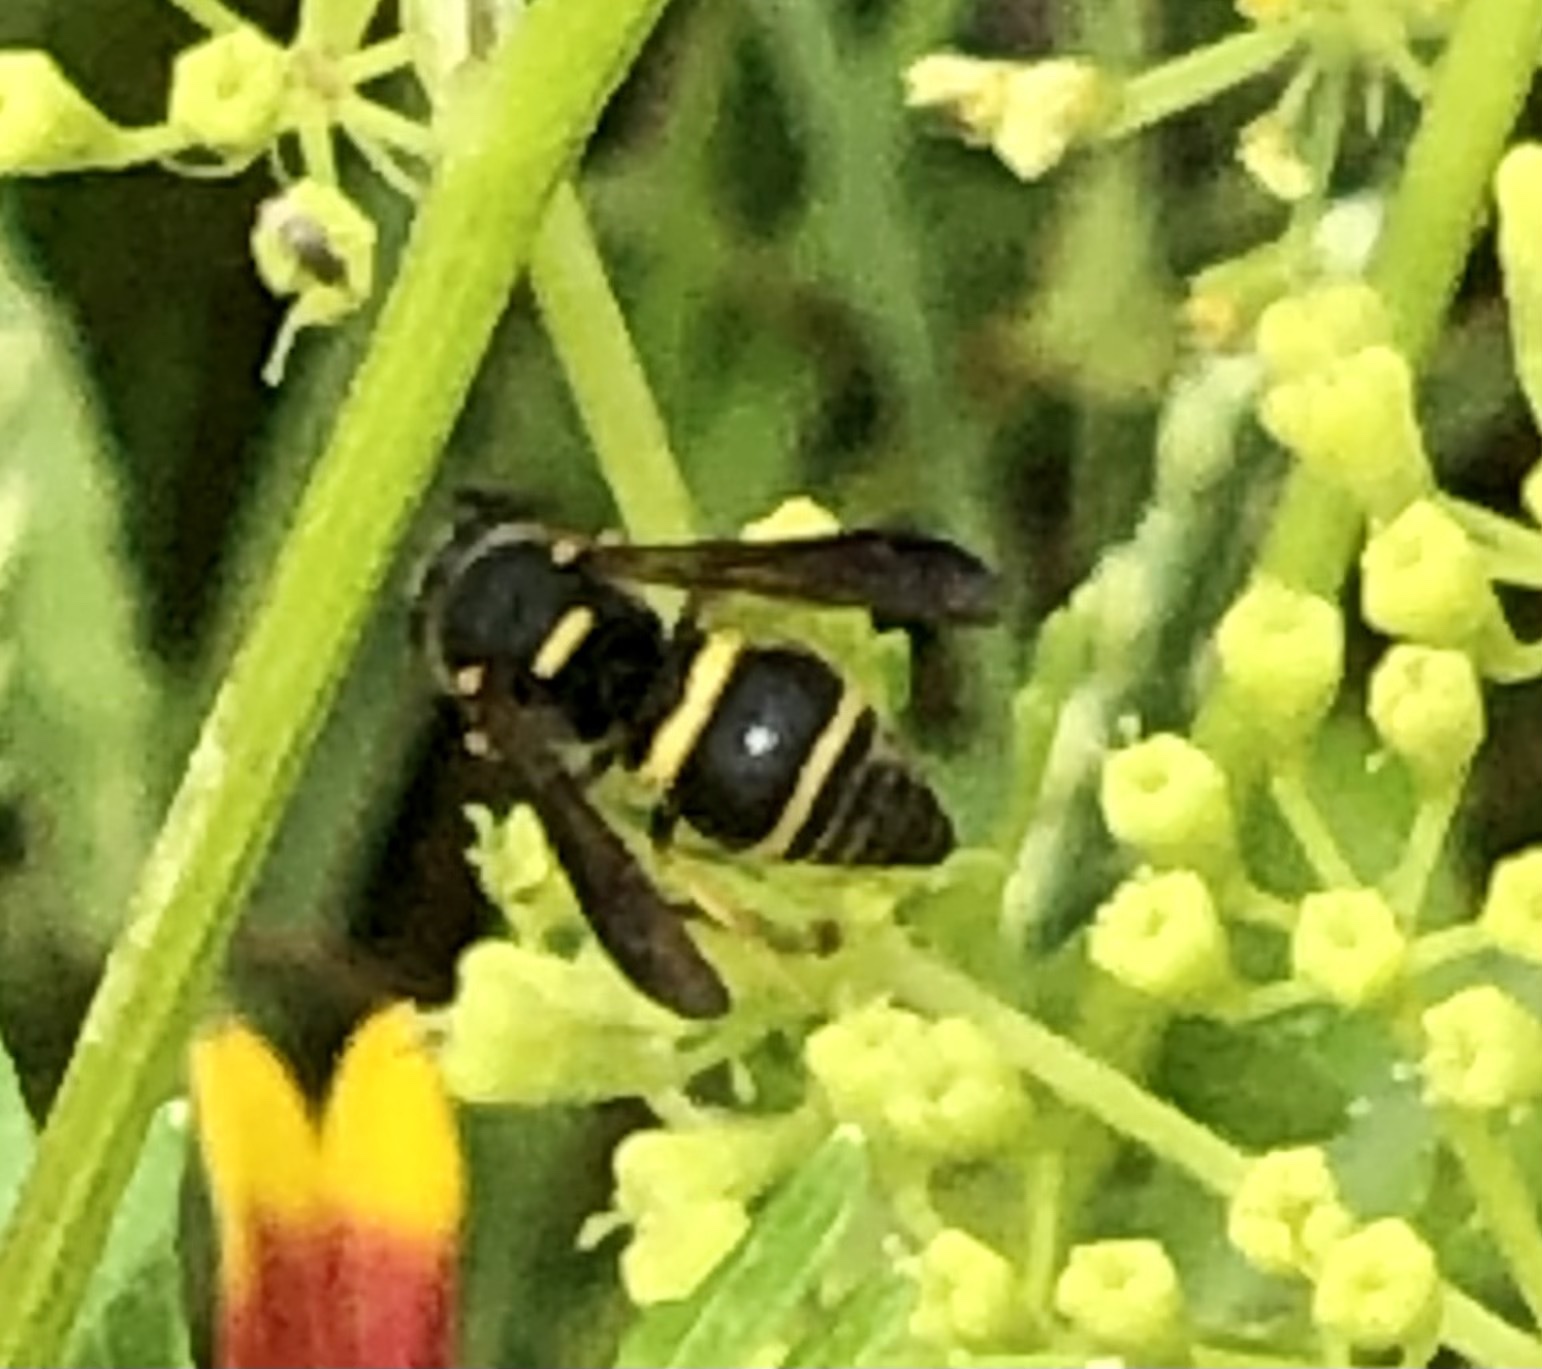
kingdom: Animalia
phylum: Arthropoda
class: Insecta
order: Hymenoptera
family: Eumenidae
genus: Euodynerus
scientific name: Euodynerus foraminatus
